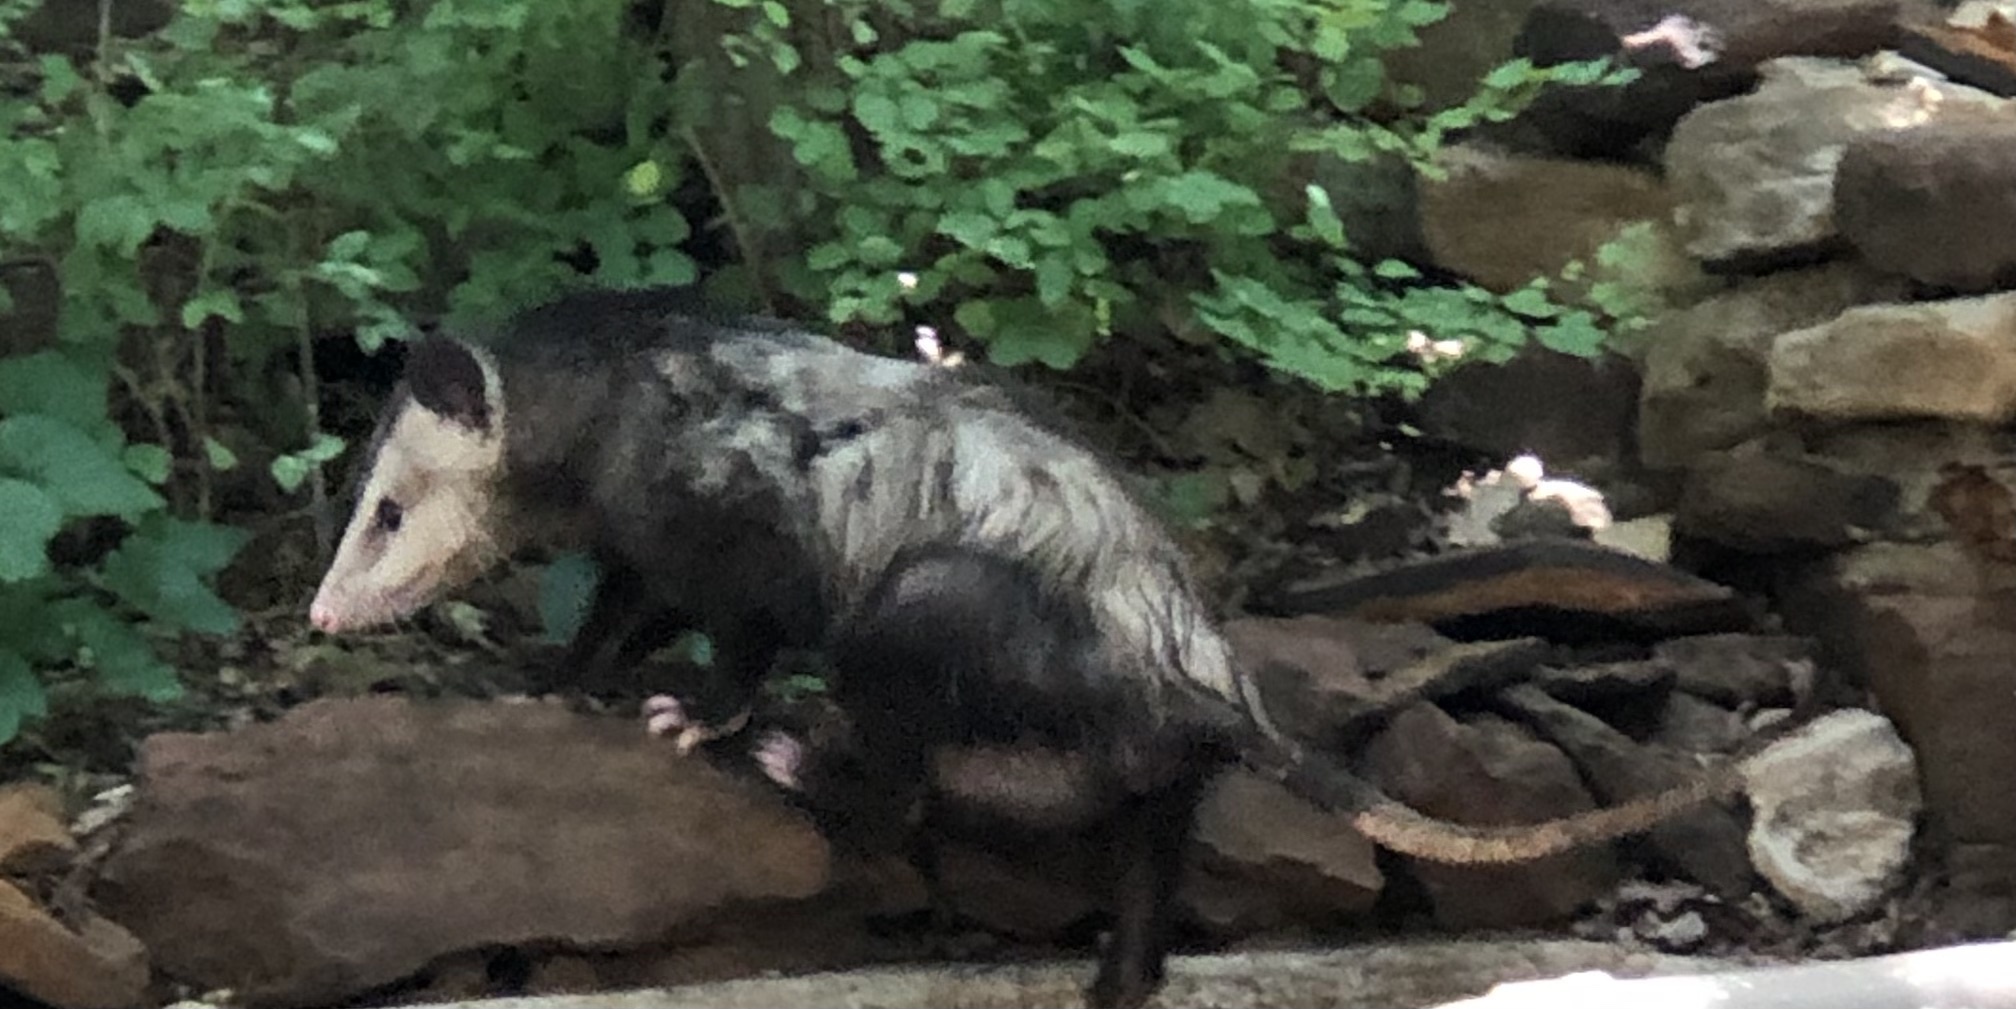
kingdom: Animalia
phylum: Chordata
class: Mammalia
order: Didelphimorphia
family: Didelphidae
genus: Didelphis
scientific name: Didelphis virginiana
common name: Virginia opossum
